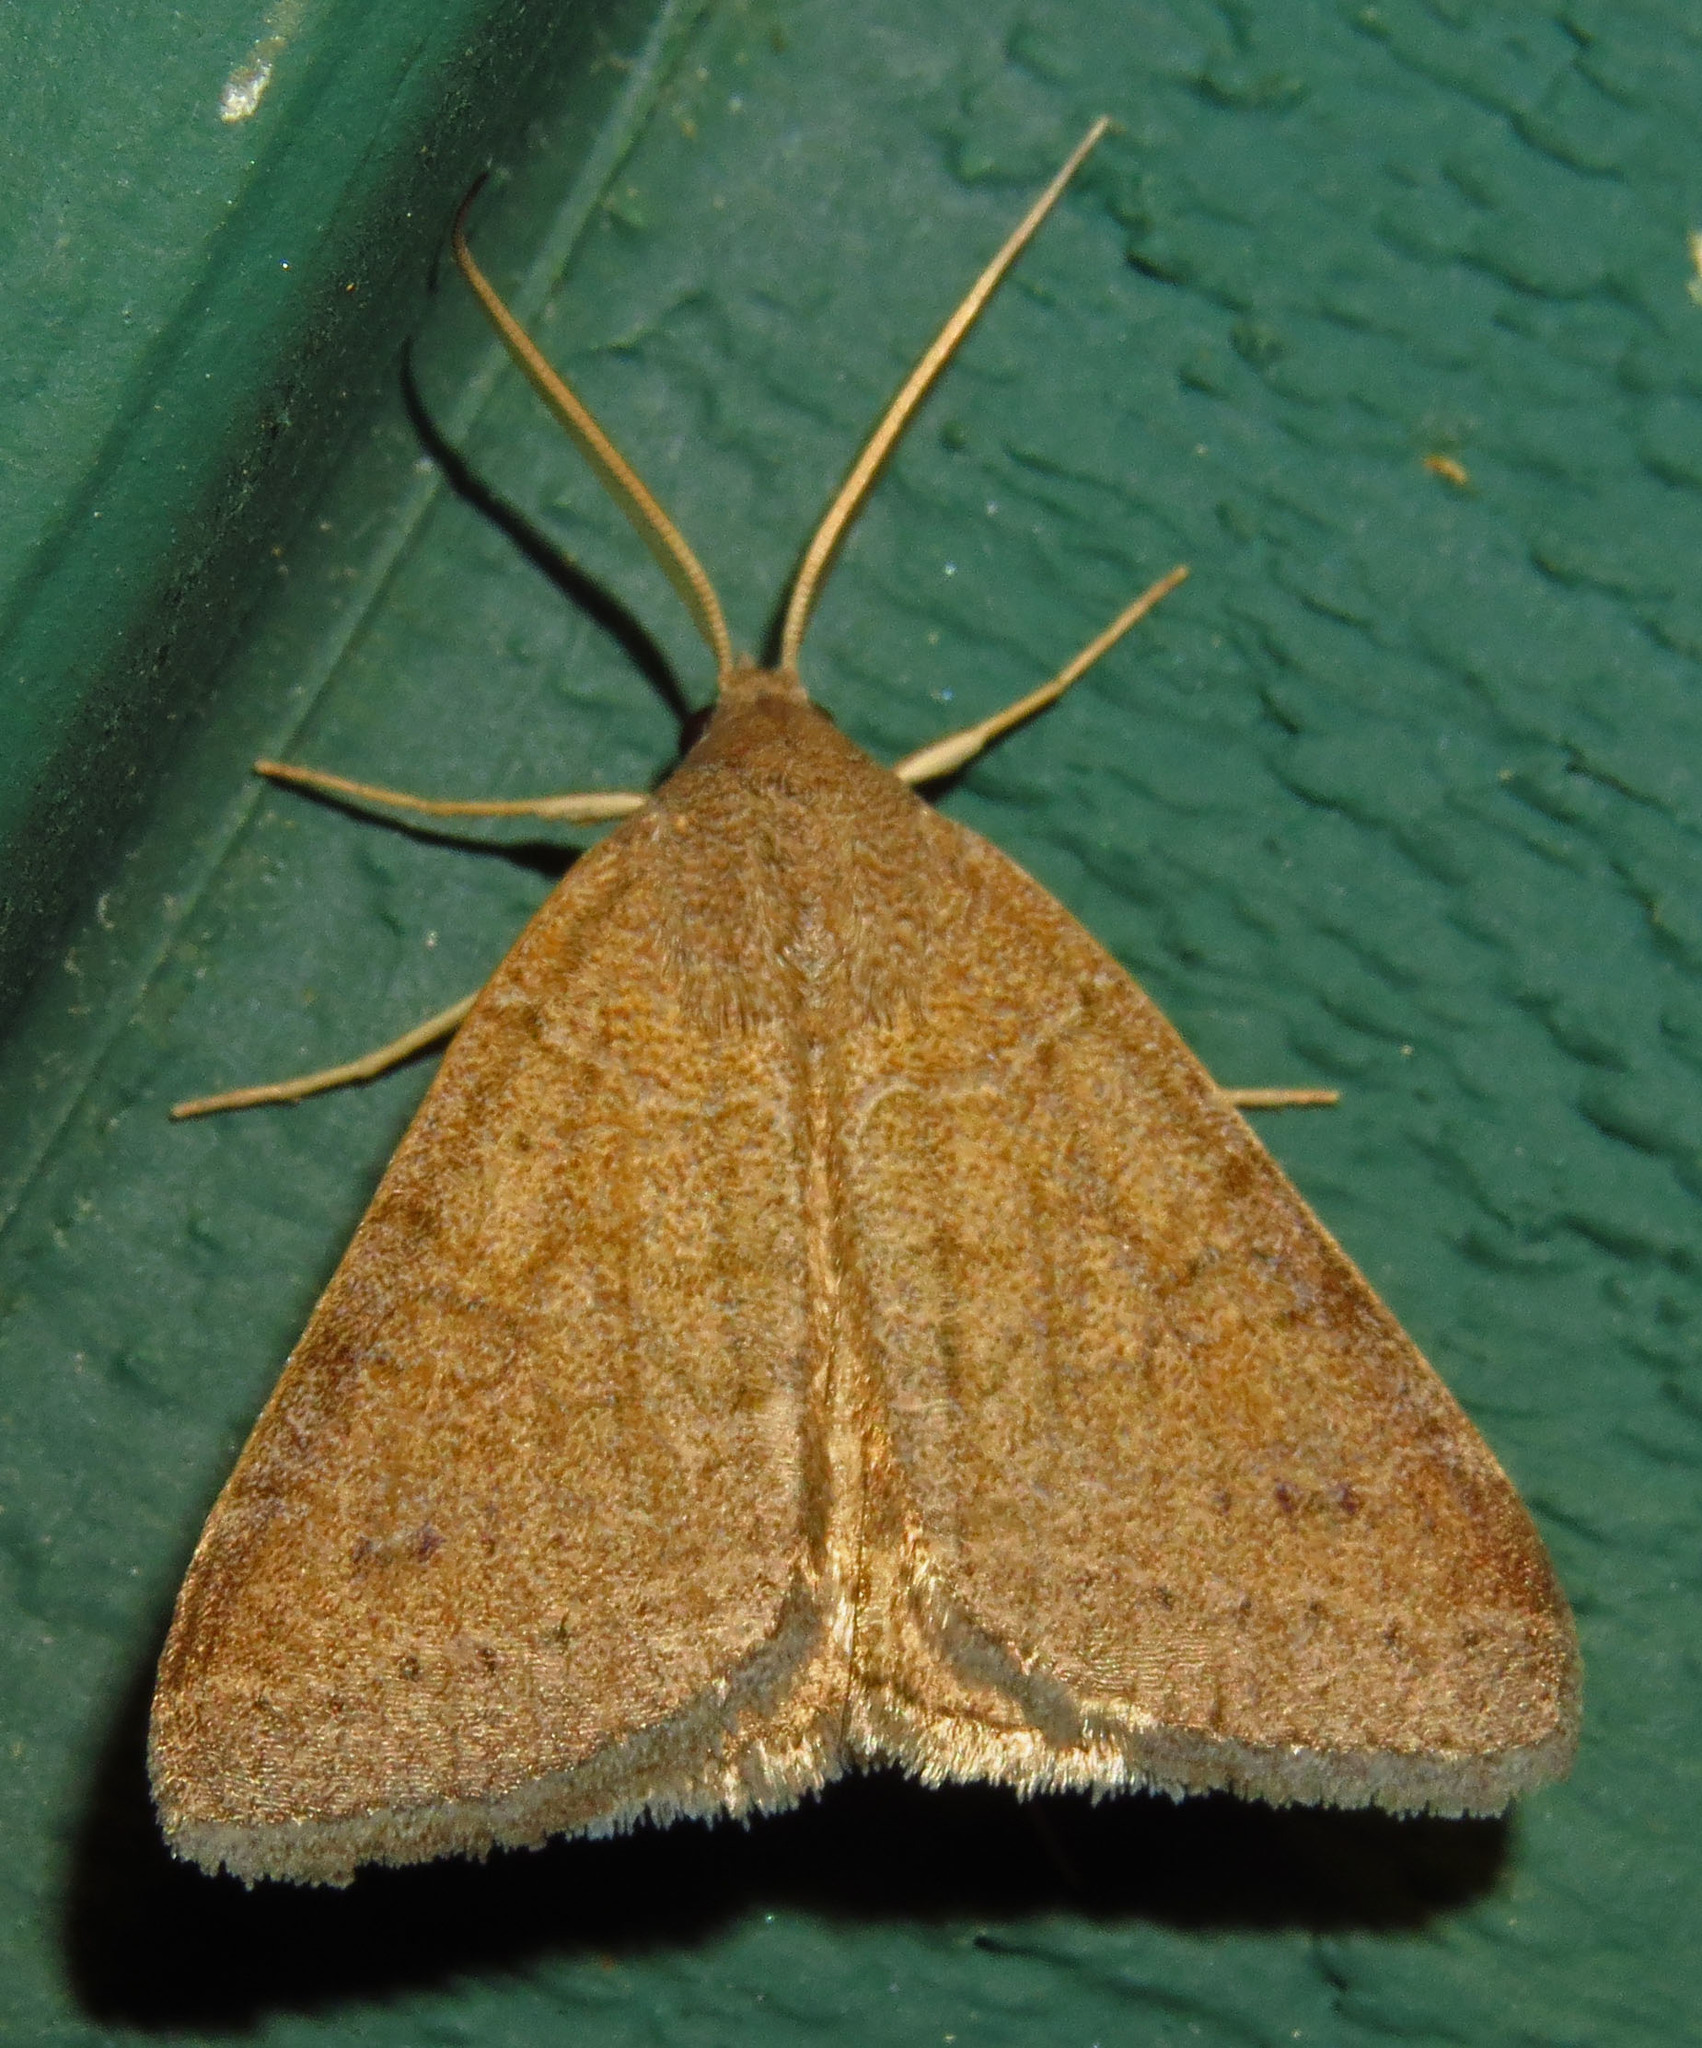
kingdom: Animalia
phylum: Arthropoda
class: Insecta
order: Lepidoptera
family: Erebidae
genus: Caenurgia
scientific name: Caenurgia chloropha
